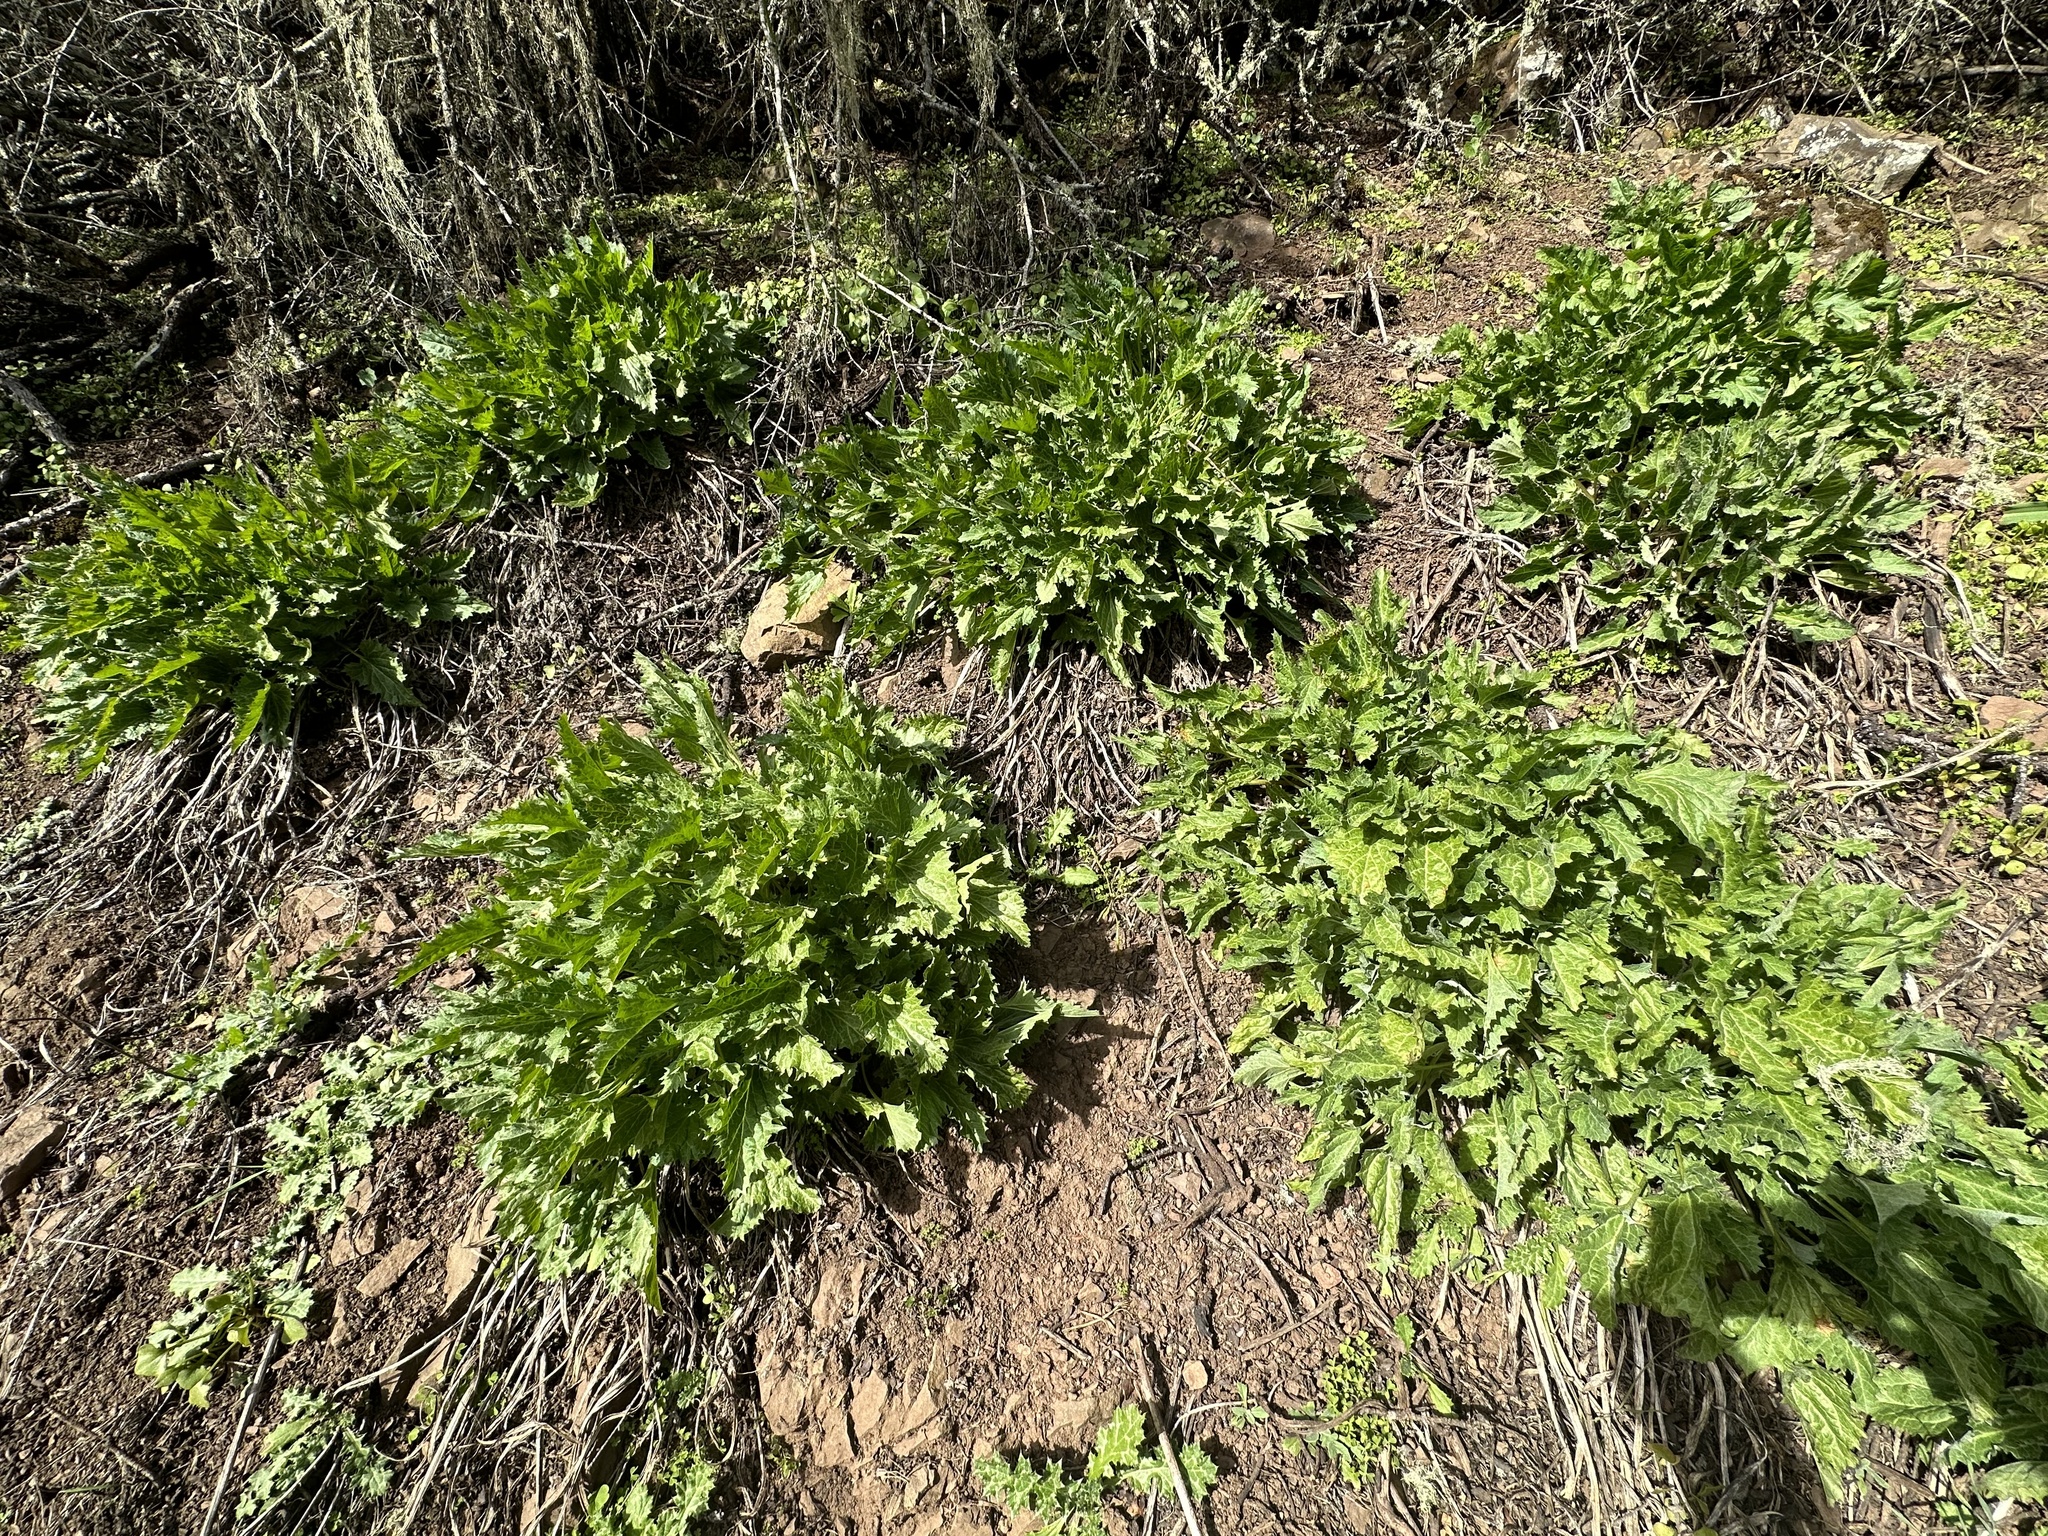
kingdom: Plantae
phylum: Tracheophyta
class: Magnoliopsida
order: Caryophyllales
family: Amaranthaceae
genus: Blitum
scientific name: Blitum californicum
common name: California goosefoot
